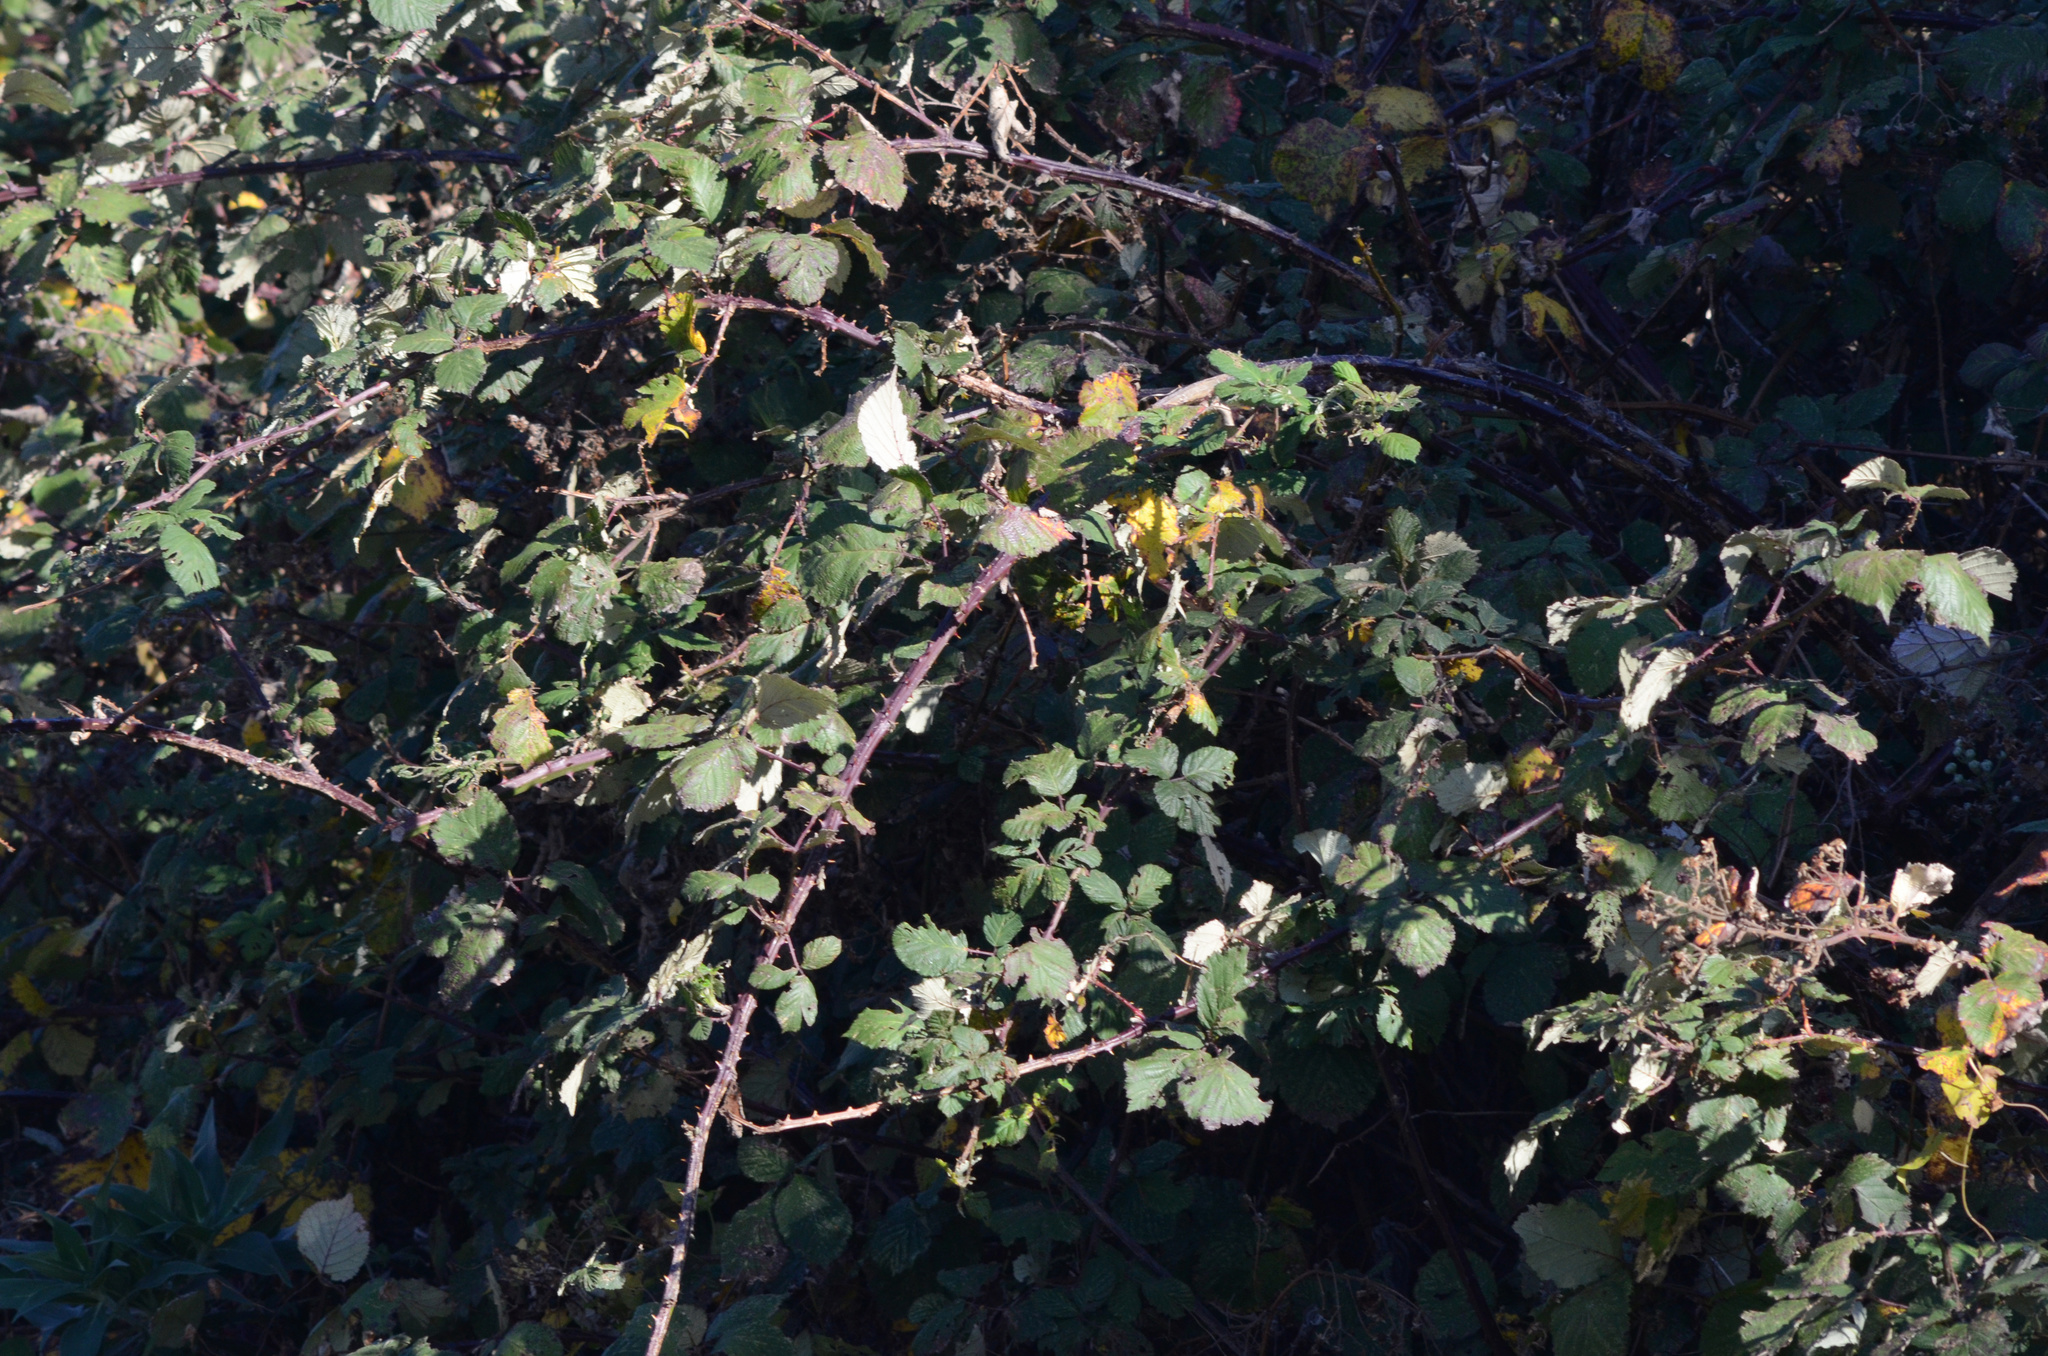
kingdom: Plantae
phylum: Tracheophyta
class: Magnoliopsida
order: Rosales
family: Rosaceae
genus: Rubus
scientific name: Rubus
